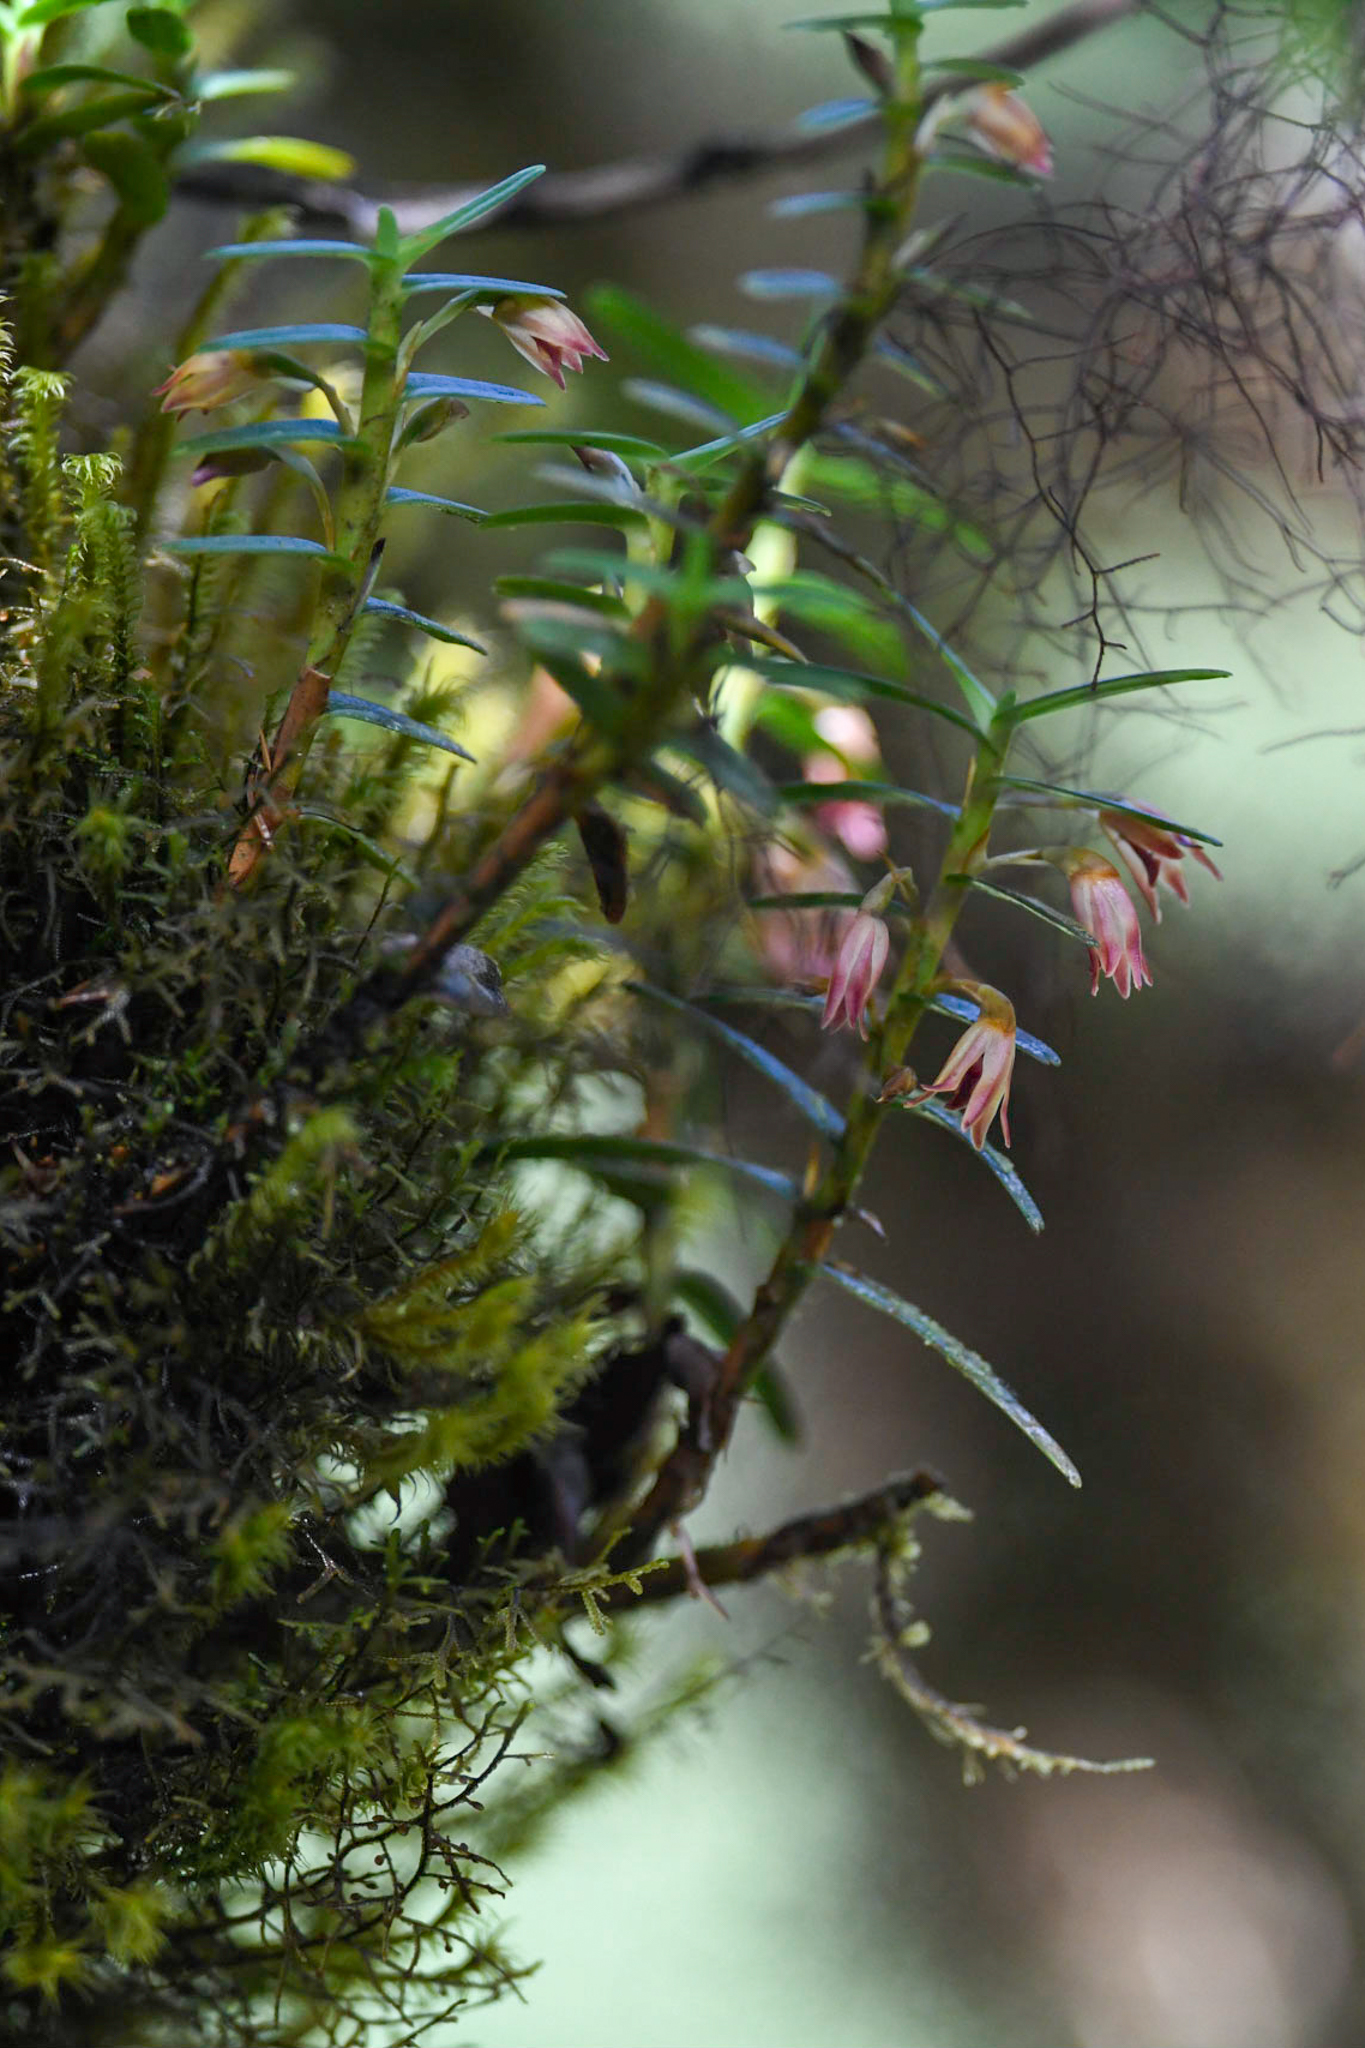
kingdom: Plantae
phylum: Tracheophyta
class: Liliopsida
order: Asparagales
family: Orchidaceae
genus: Maxillaria
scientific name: Maxillaria dendrobioides
